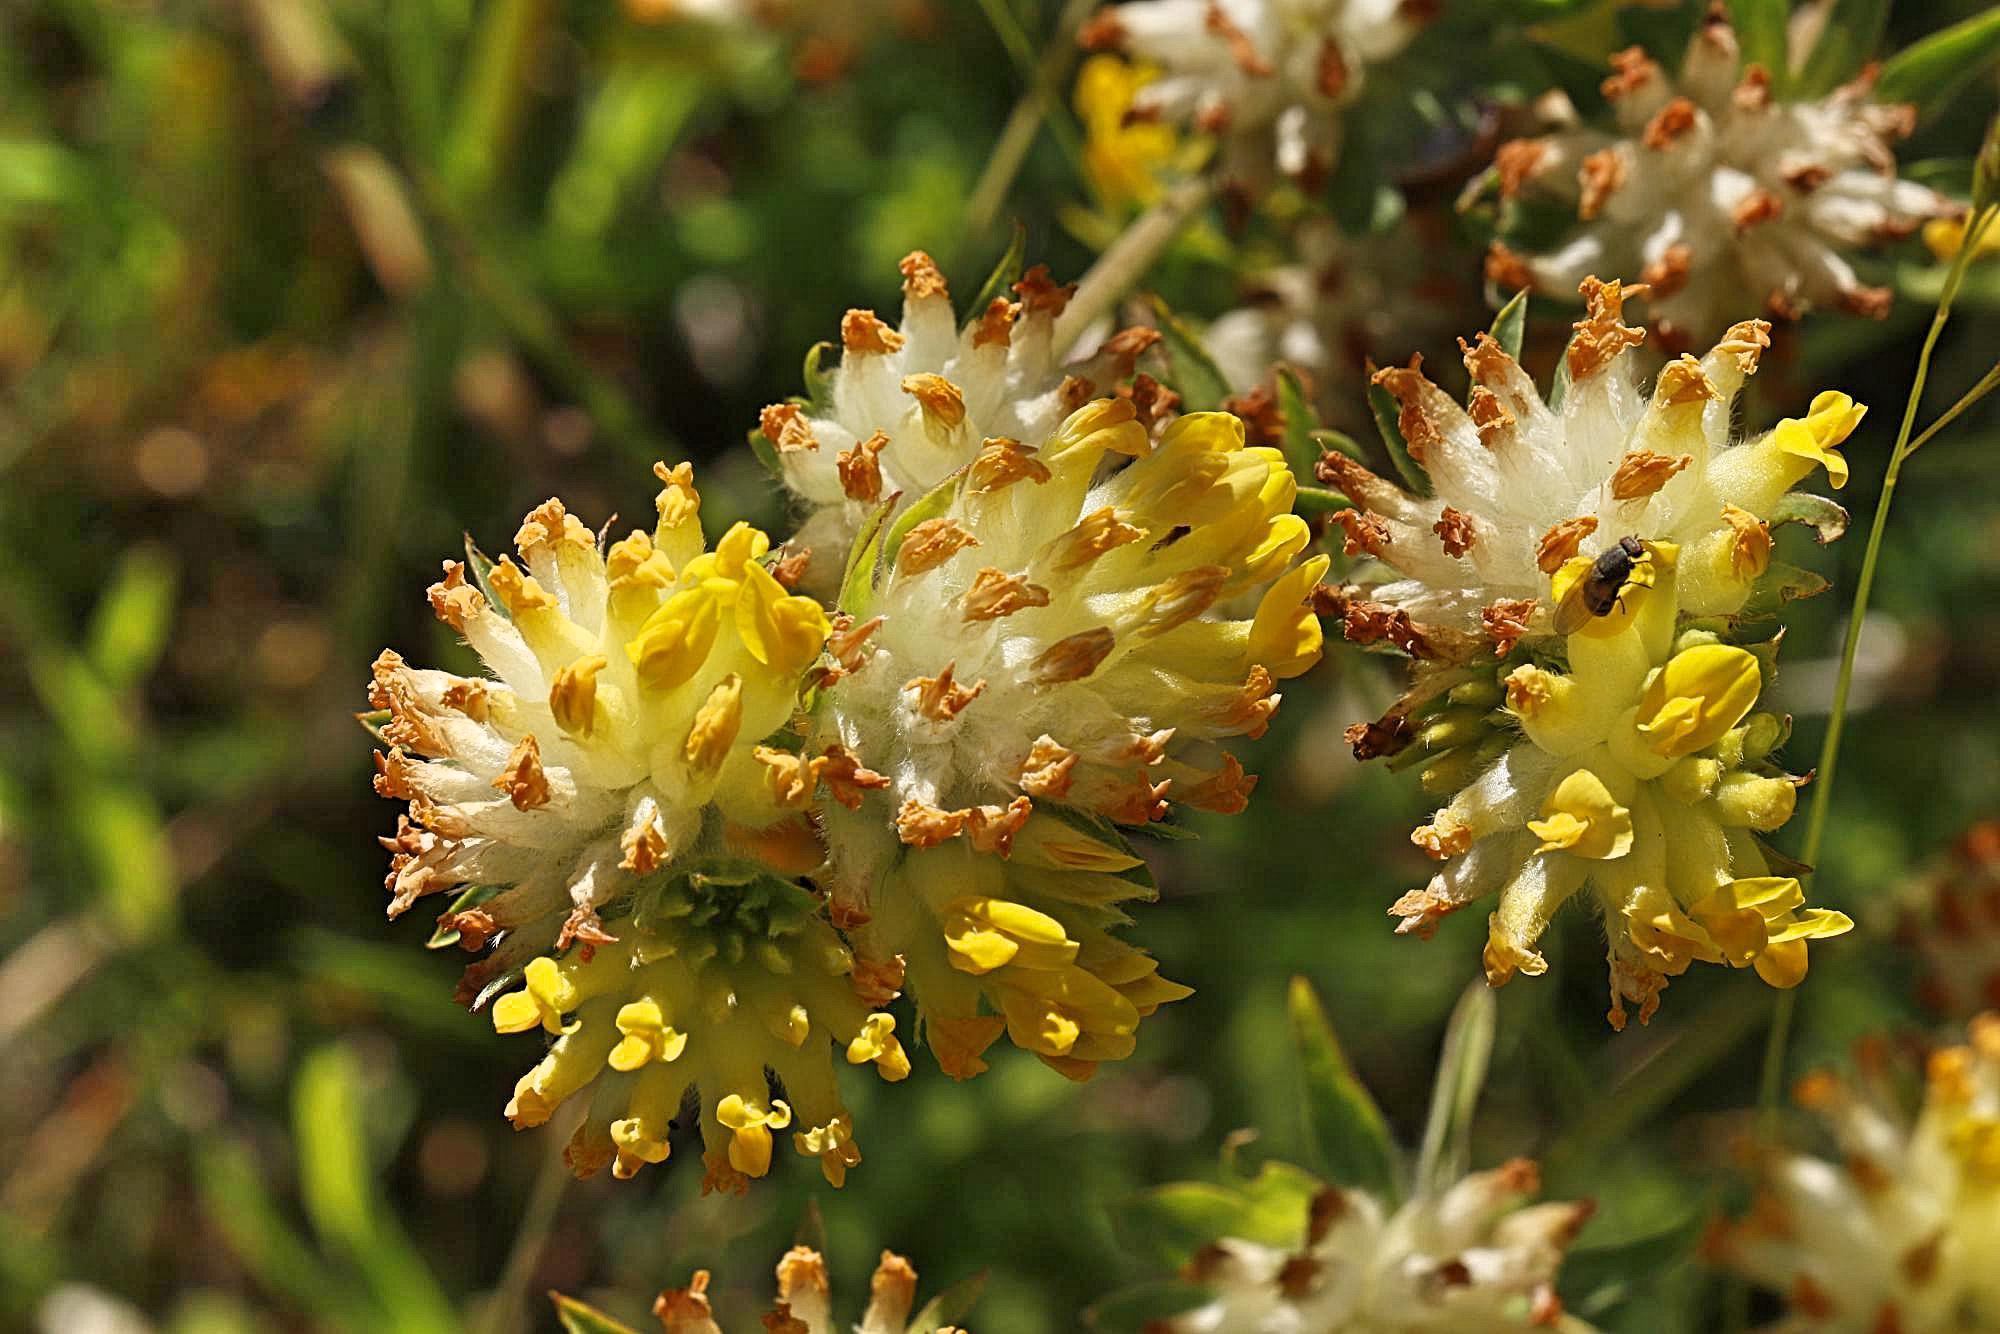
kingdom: Plantae
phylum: Tracheophyta
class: Magnoliopsida
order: Fabales
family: Fabaceae
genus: Anthyllis
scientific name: Anthyllis vulneraria
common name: Kidney vetch
